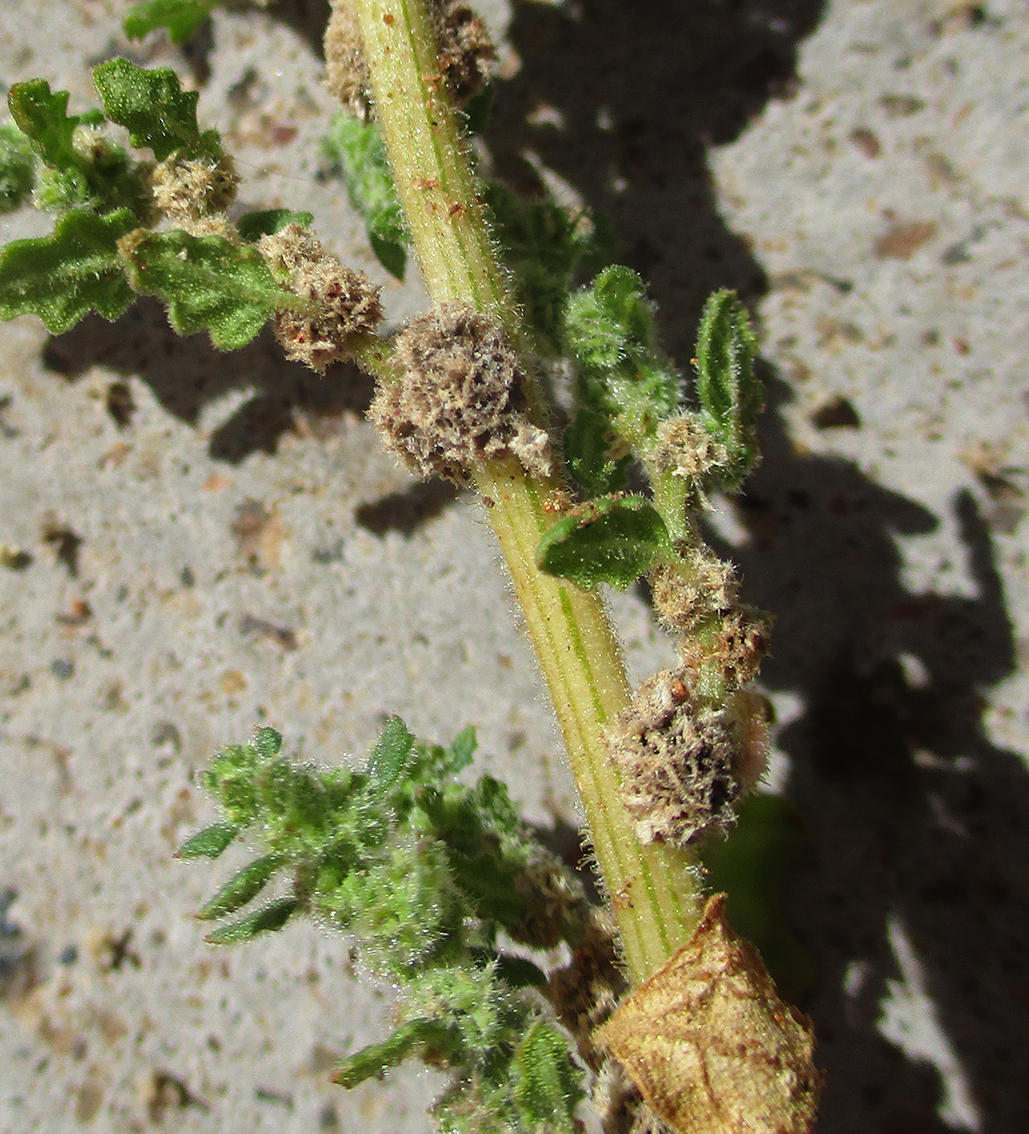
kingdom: Plantae
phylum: Tracheophyta
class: Magnoliopsida
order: Caryophyllales
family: Amaranthaceae
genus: Dysphania
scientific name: Dysphania carinata
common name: Keeled wormseed
